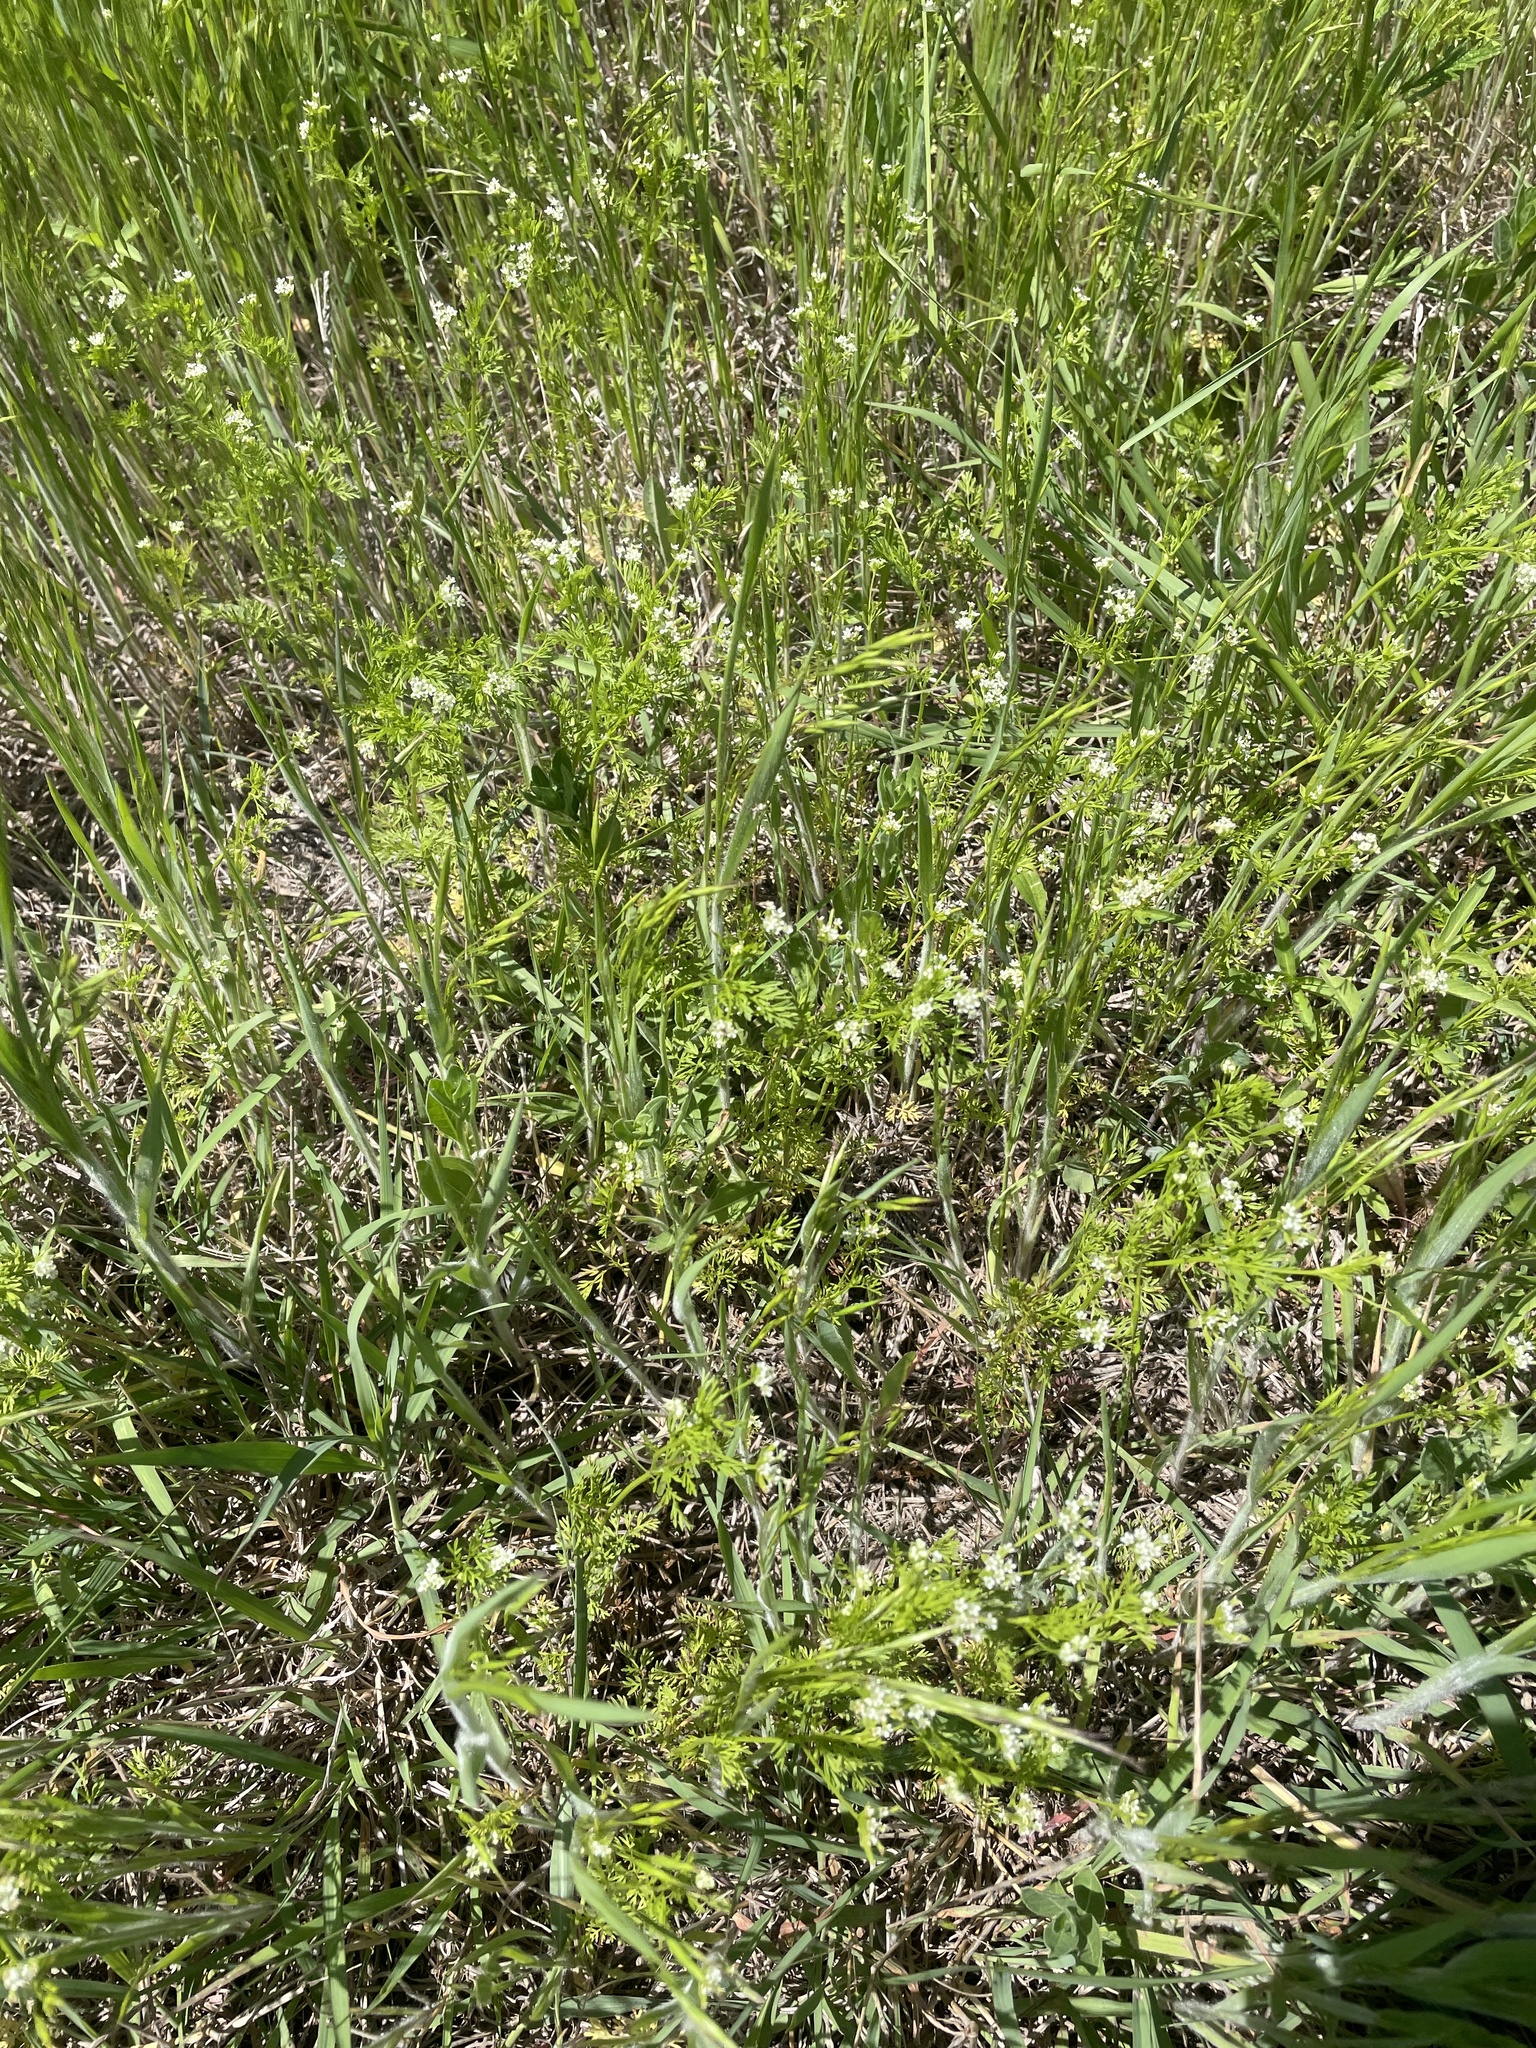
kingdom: Plantae
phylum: Tracheophyta
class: Magnoliopsida
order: Apiales
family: Apiaceae
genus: Chaerophyllum
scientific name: Chaerophyllum tainturieri
